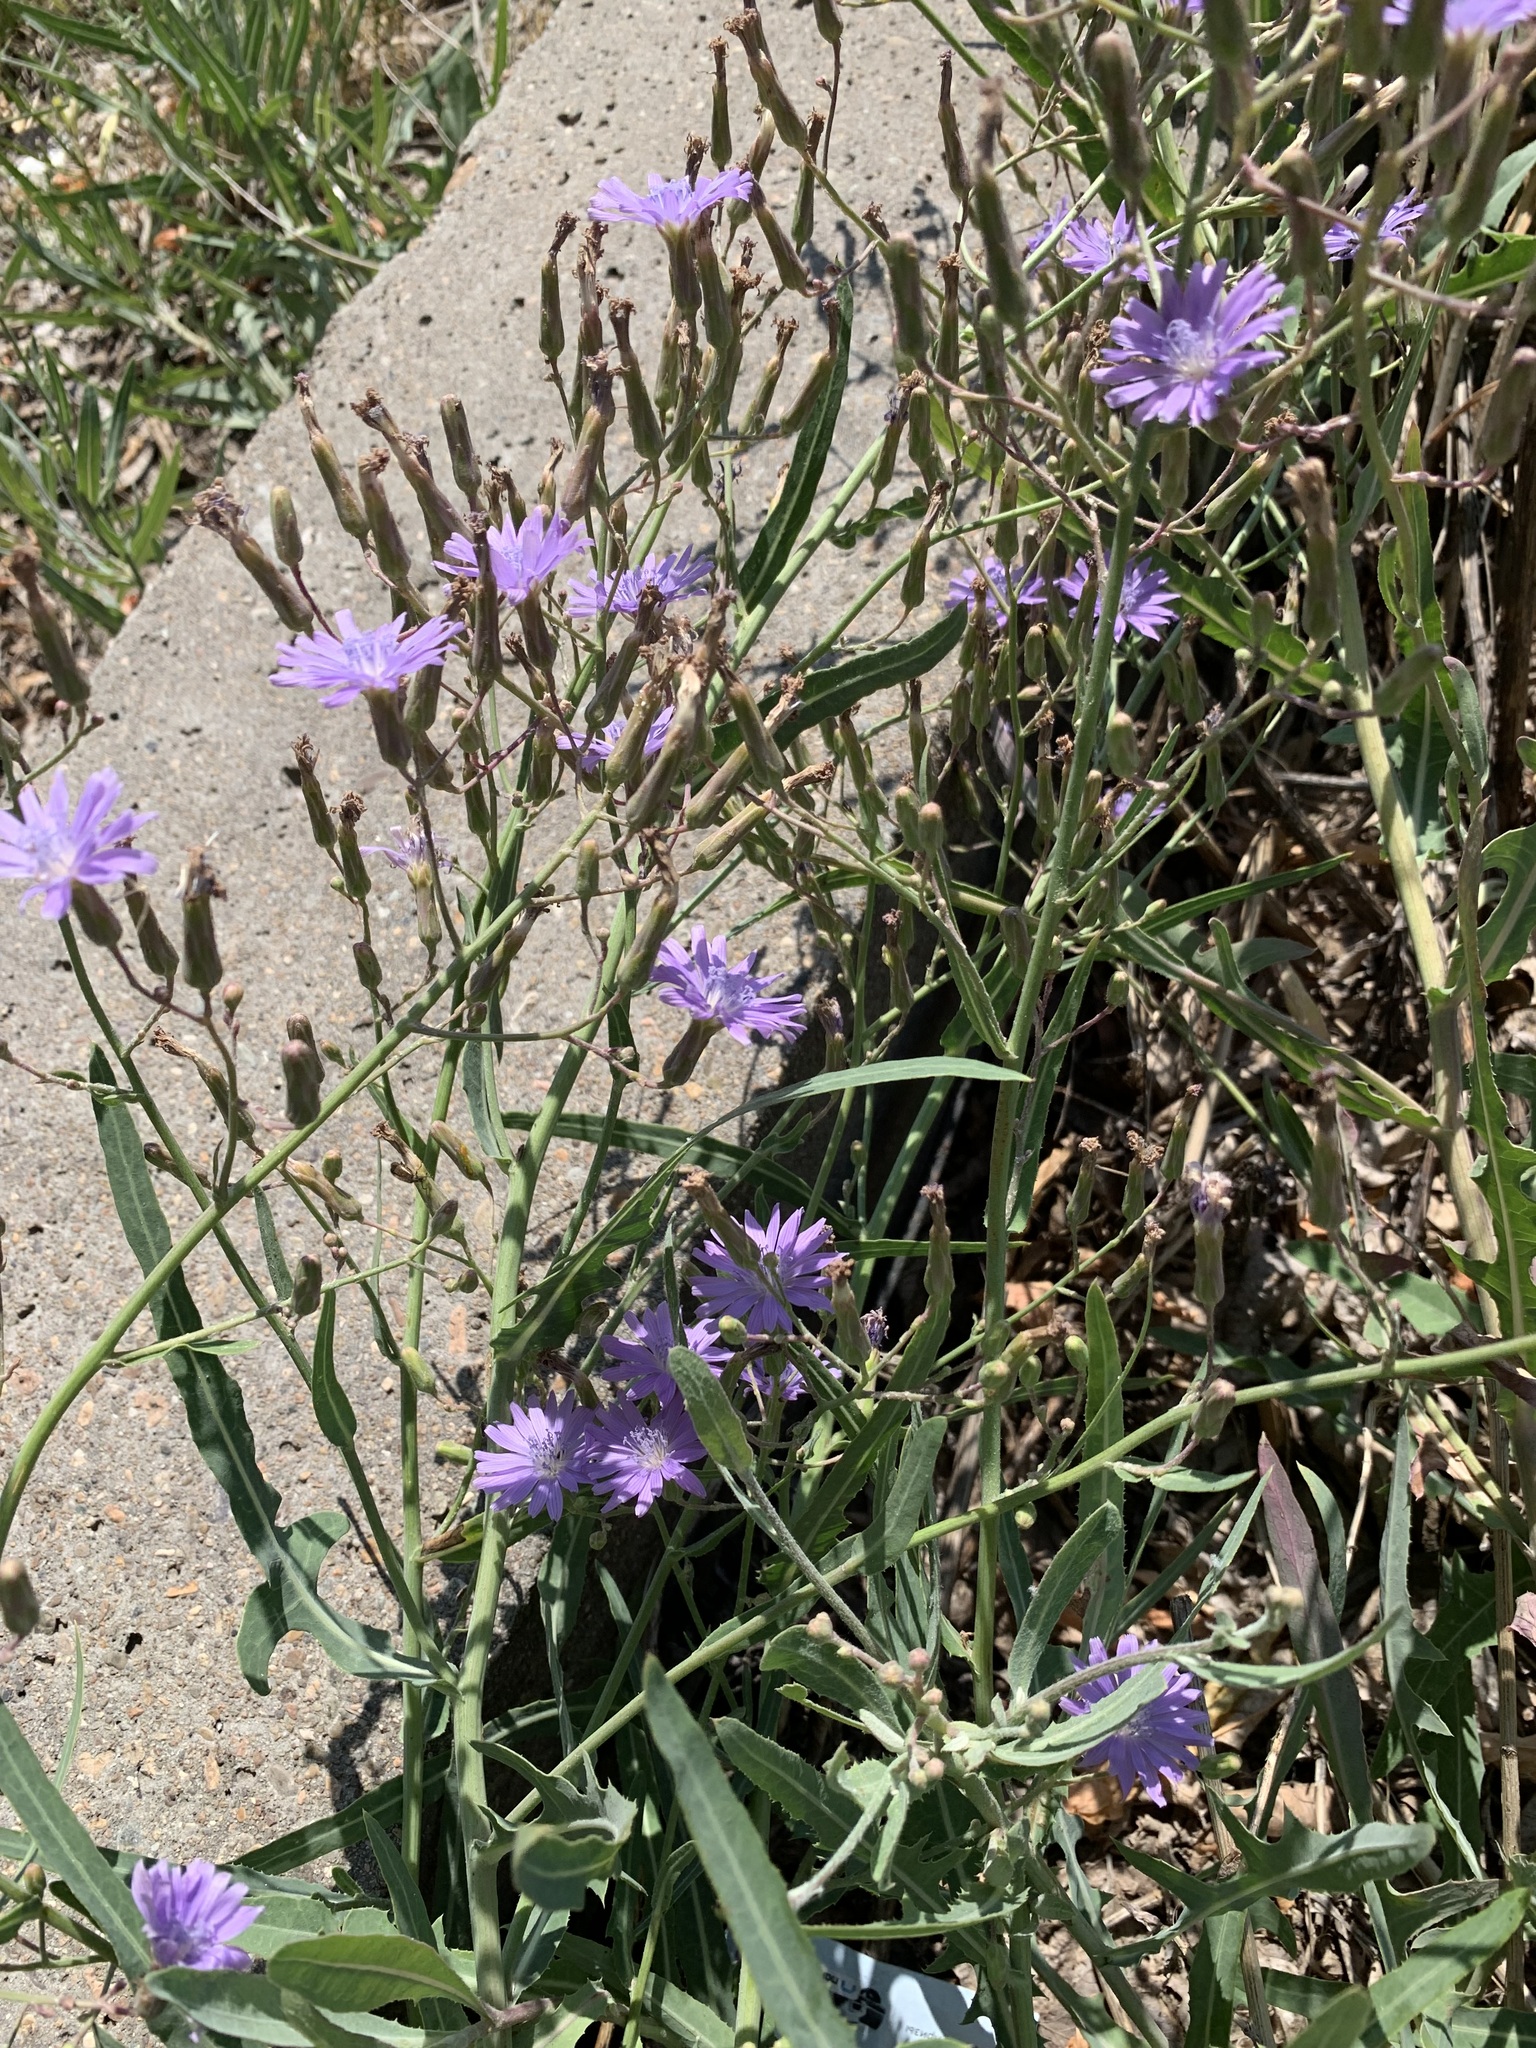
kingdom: Plantae
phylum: Tracheophyta
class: Magnoliopsida
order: Asterales
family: Asteraceae
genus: Lactuca
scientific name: Lactuca tatarica
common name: Blue lettuce
